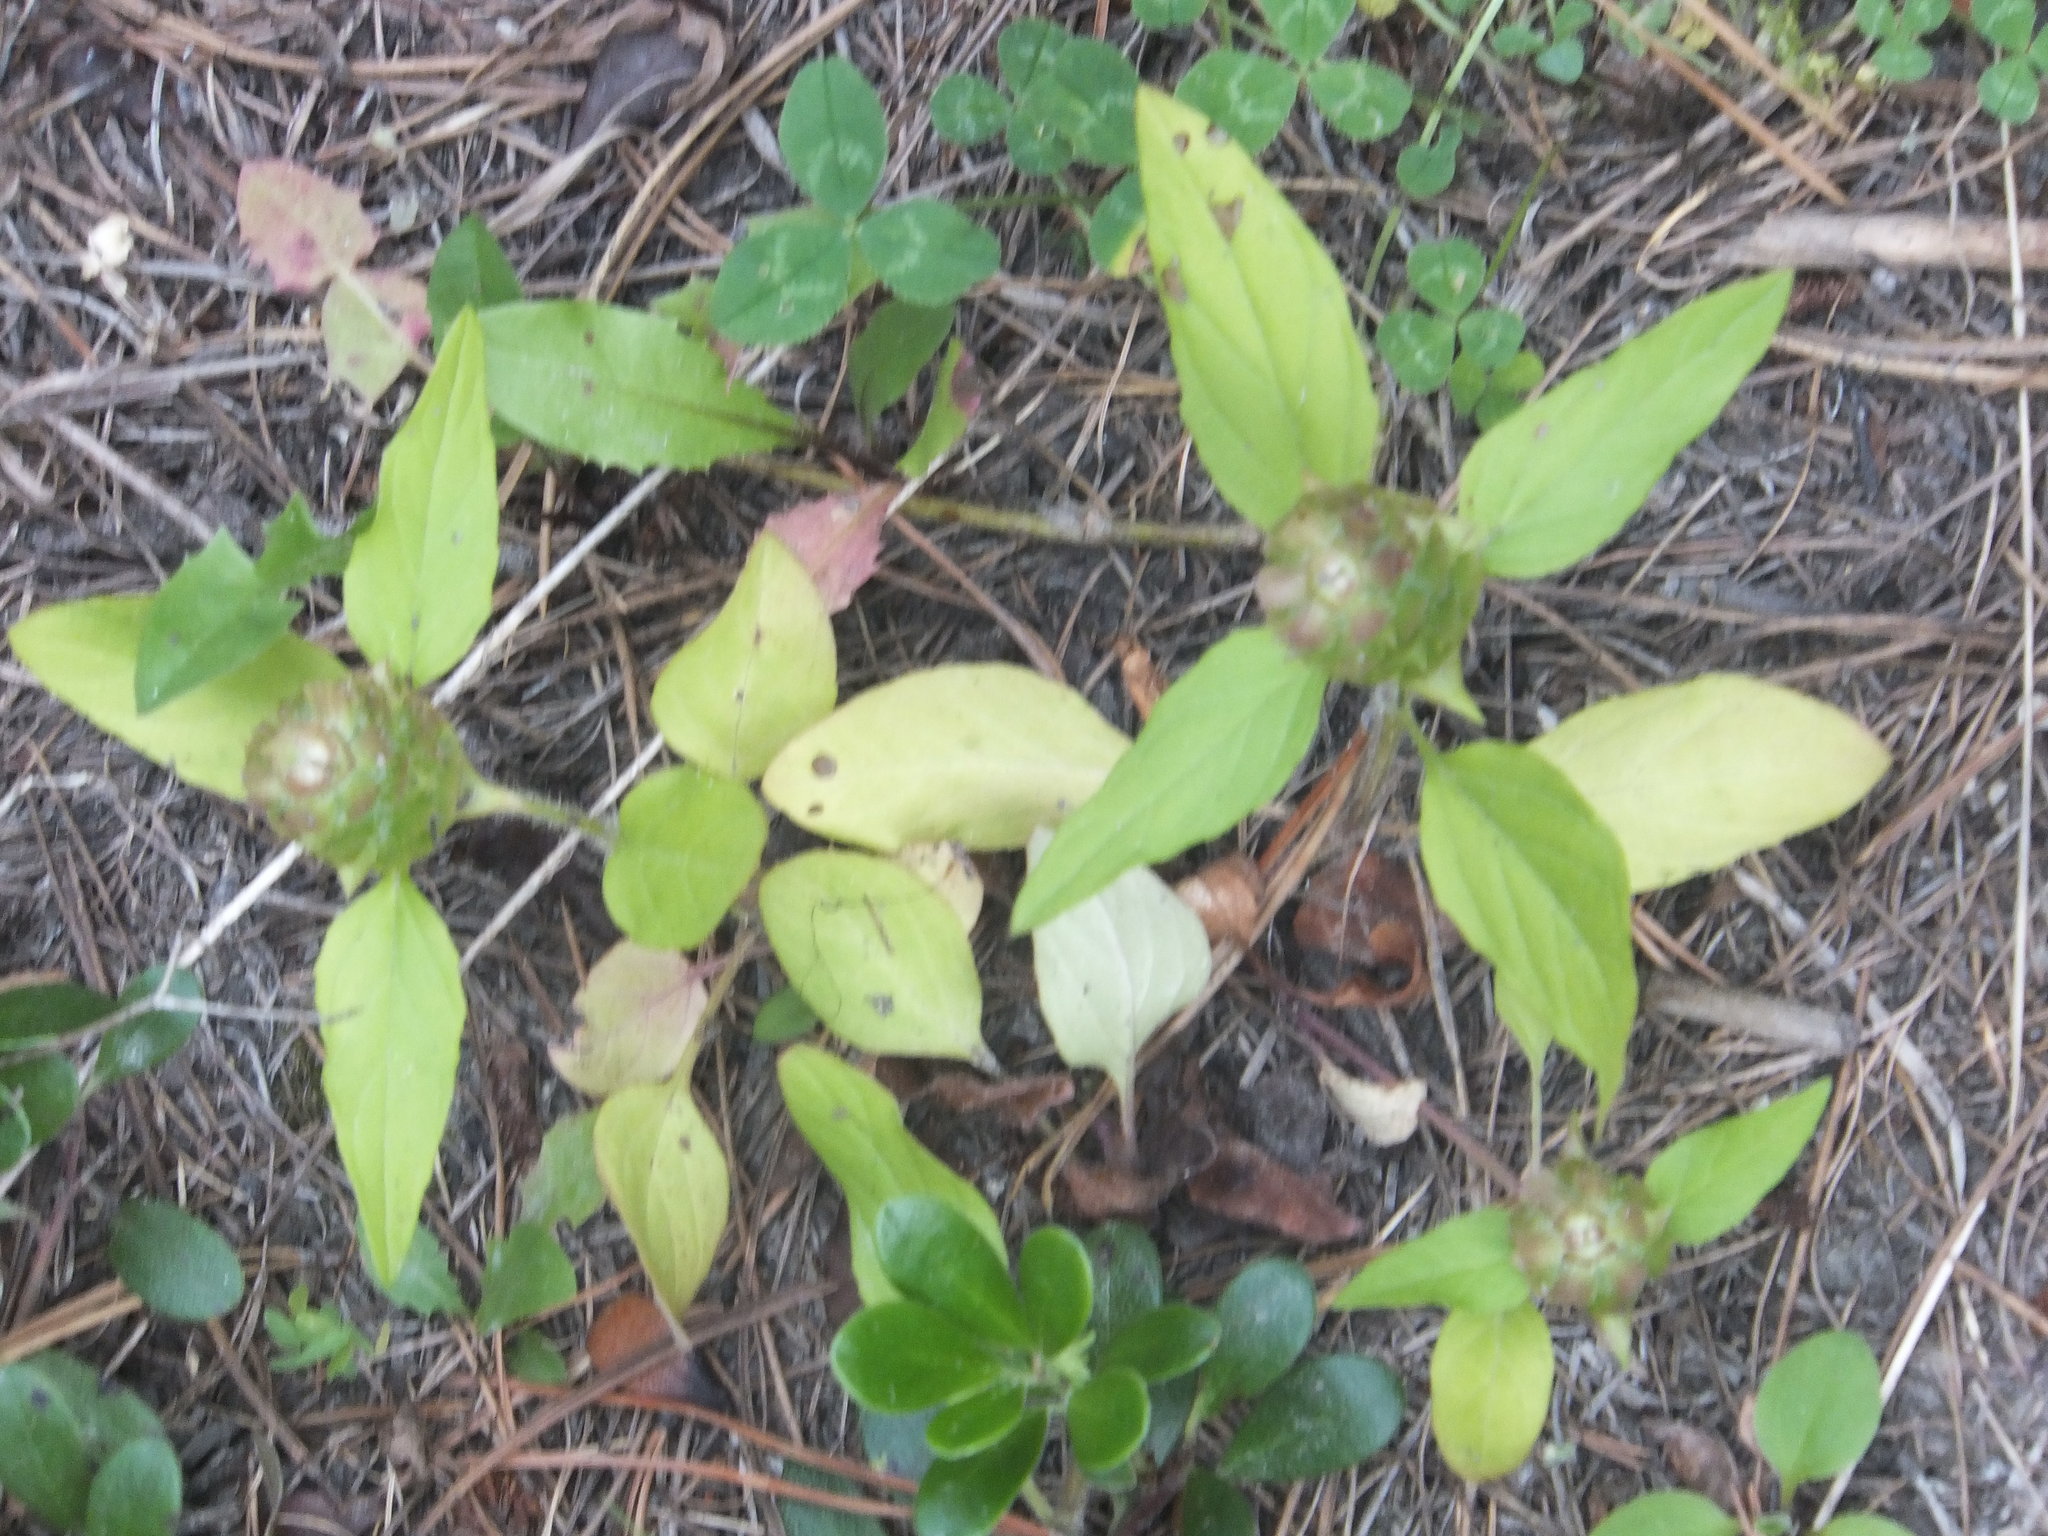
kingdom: Plantae
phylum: Tracheophyta
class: Magnoliopsida
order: Lamiales
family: Lamiaceae
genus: Prunella
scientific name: Prunella vulgaris
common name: Heal-all
